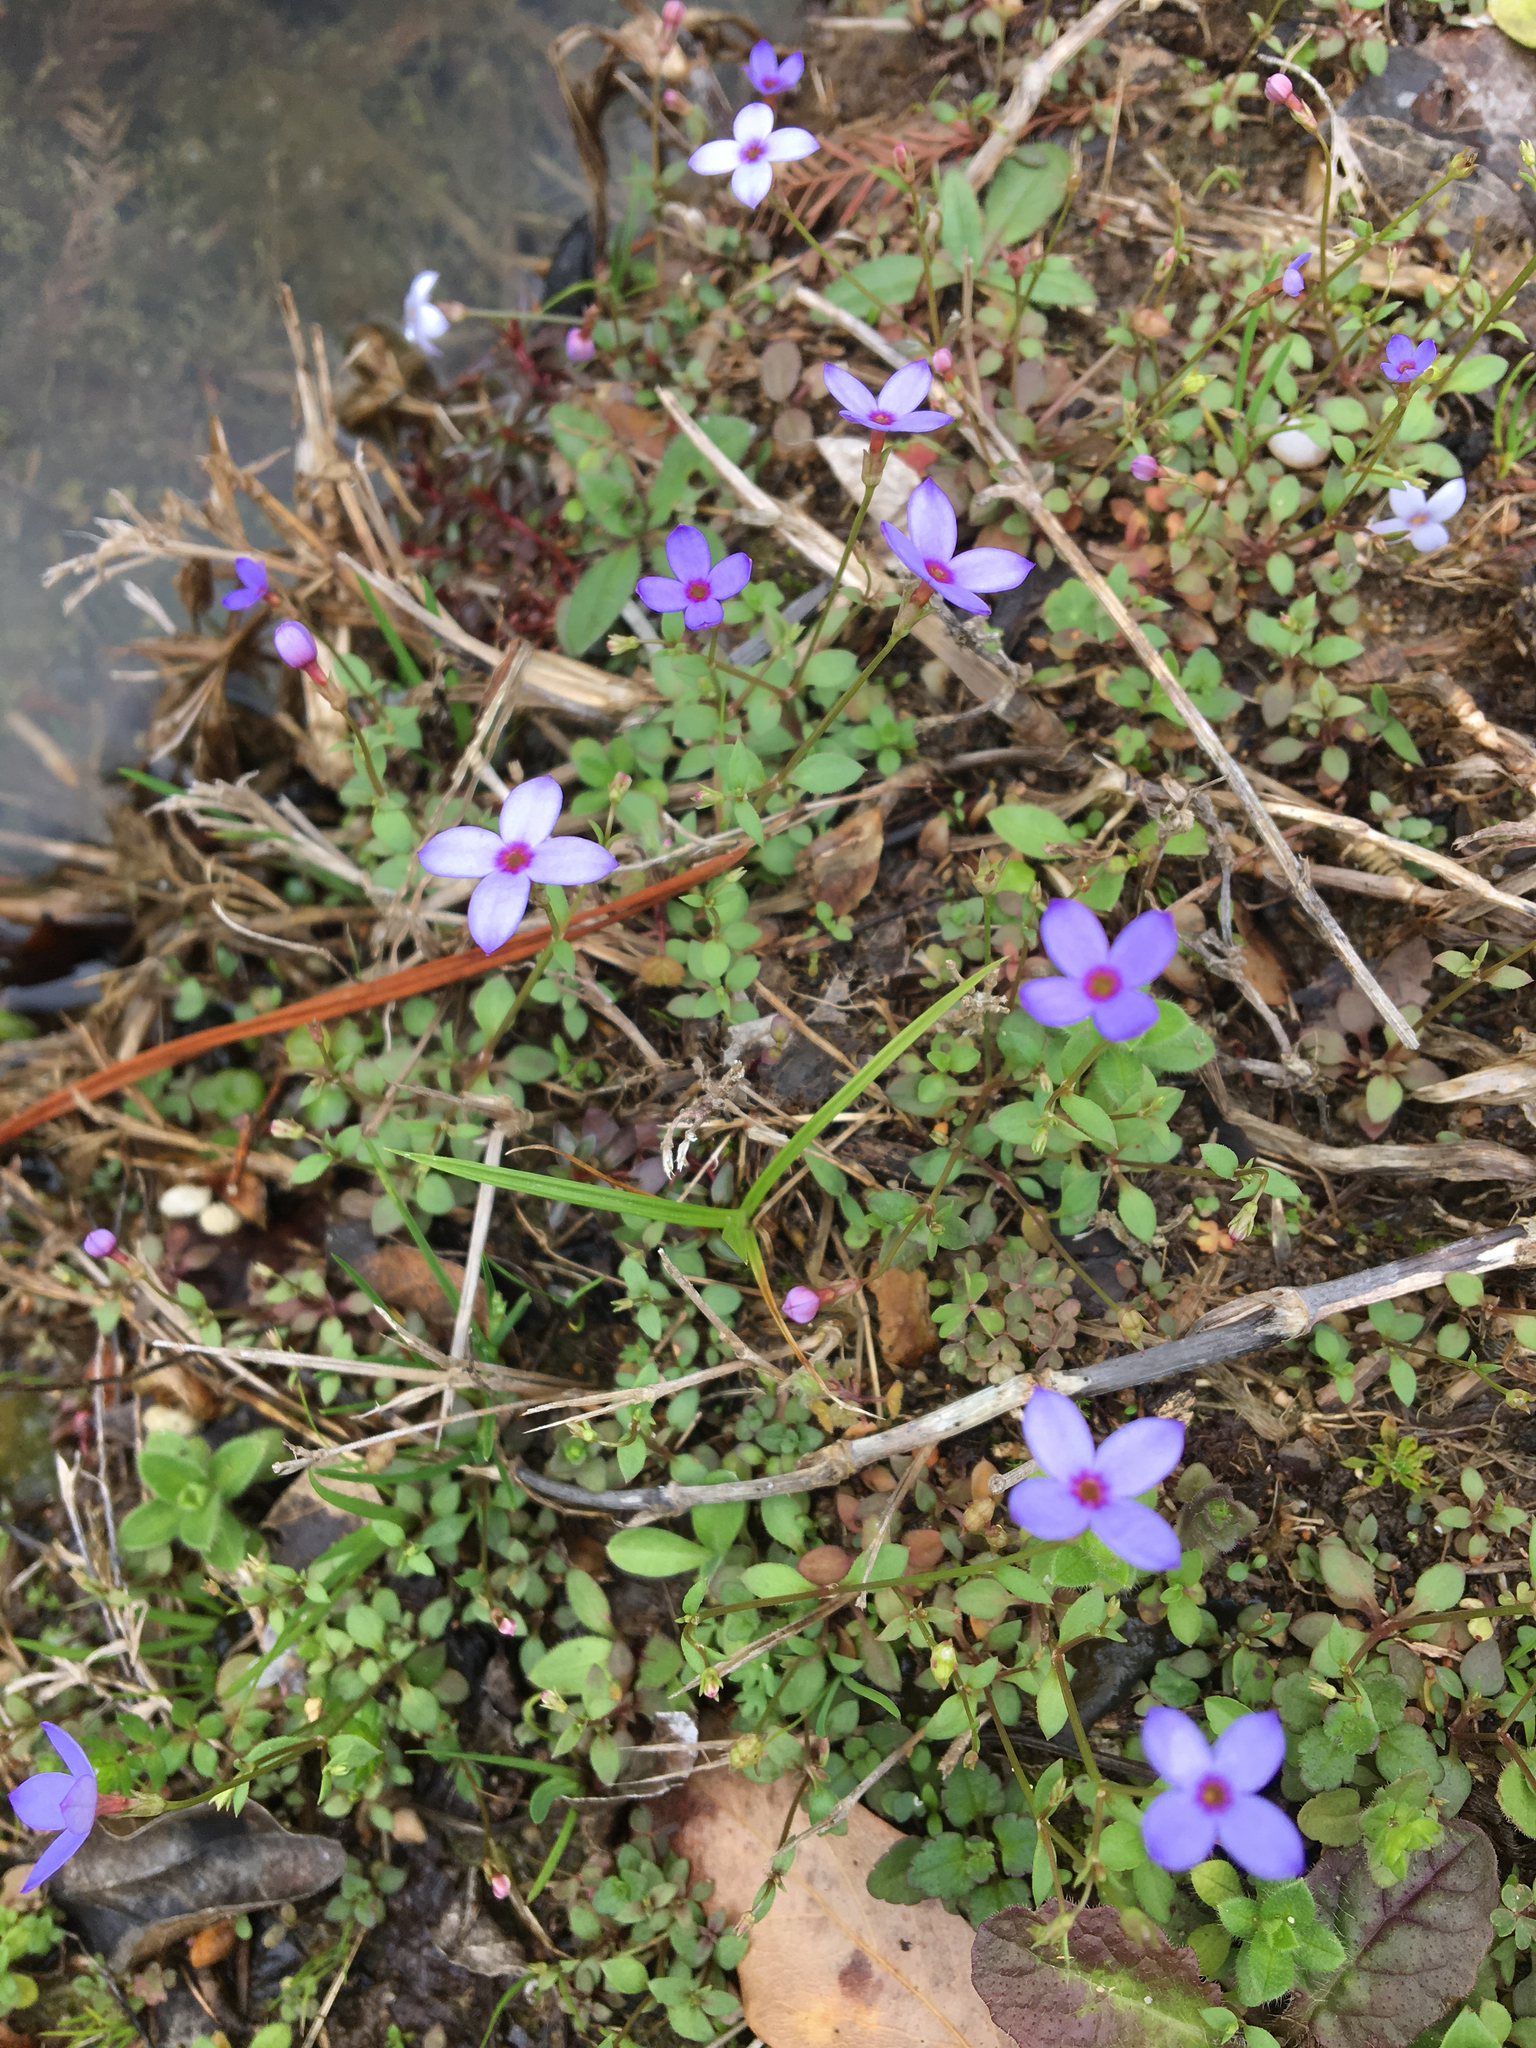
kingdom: Plantae
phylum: Tracheophyta
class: Magnoliopsida
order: Gentianales
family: Rubiaceae
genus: Houstonia
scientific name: Houstonia pusilla
